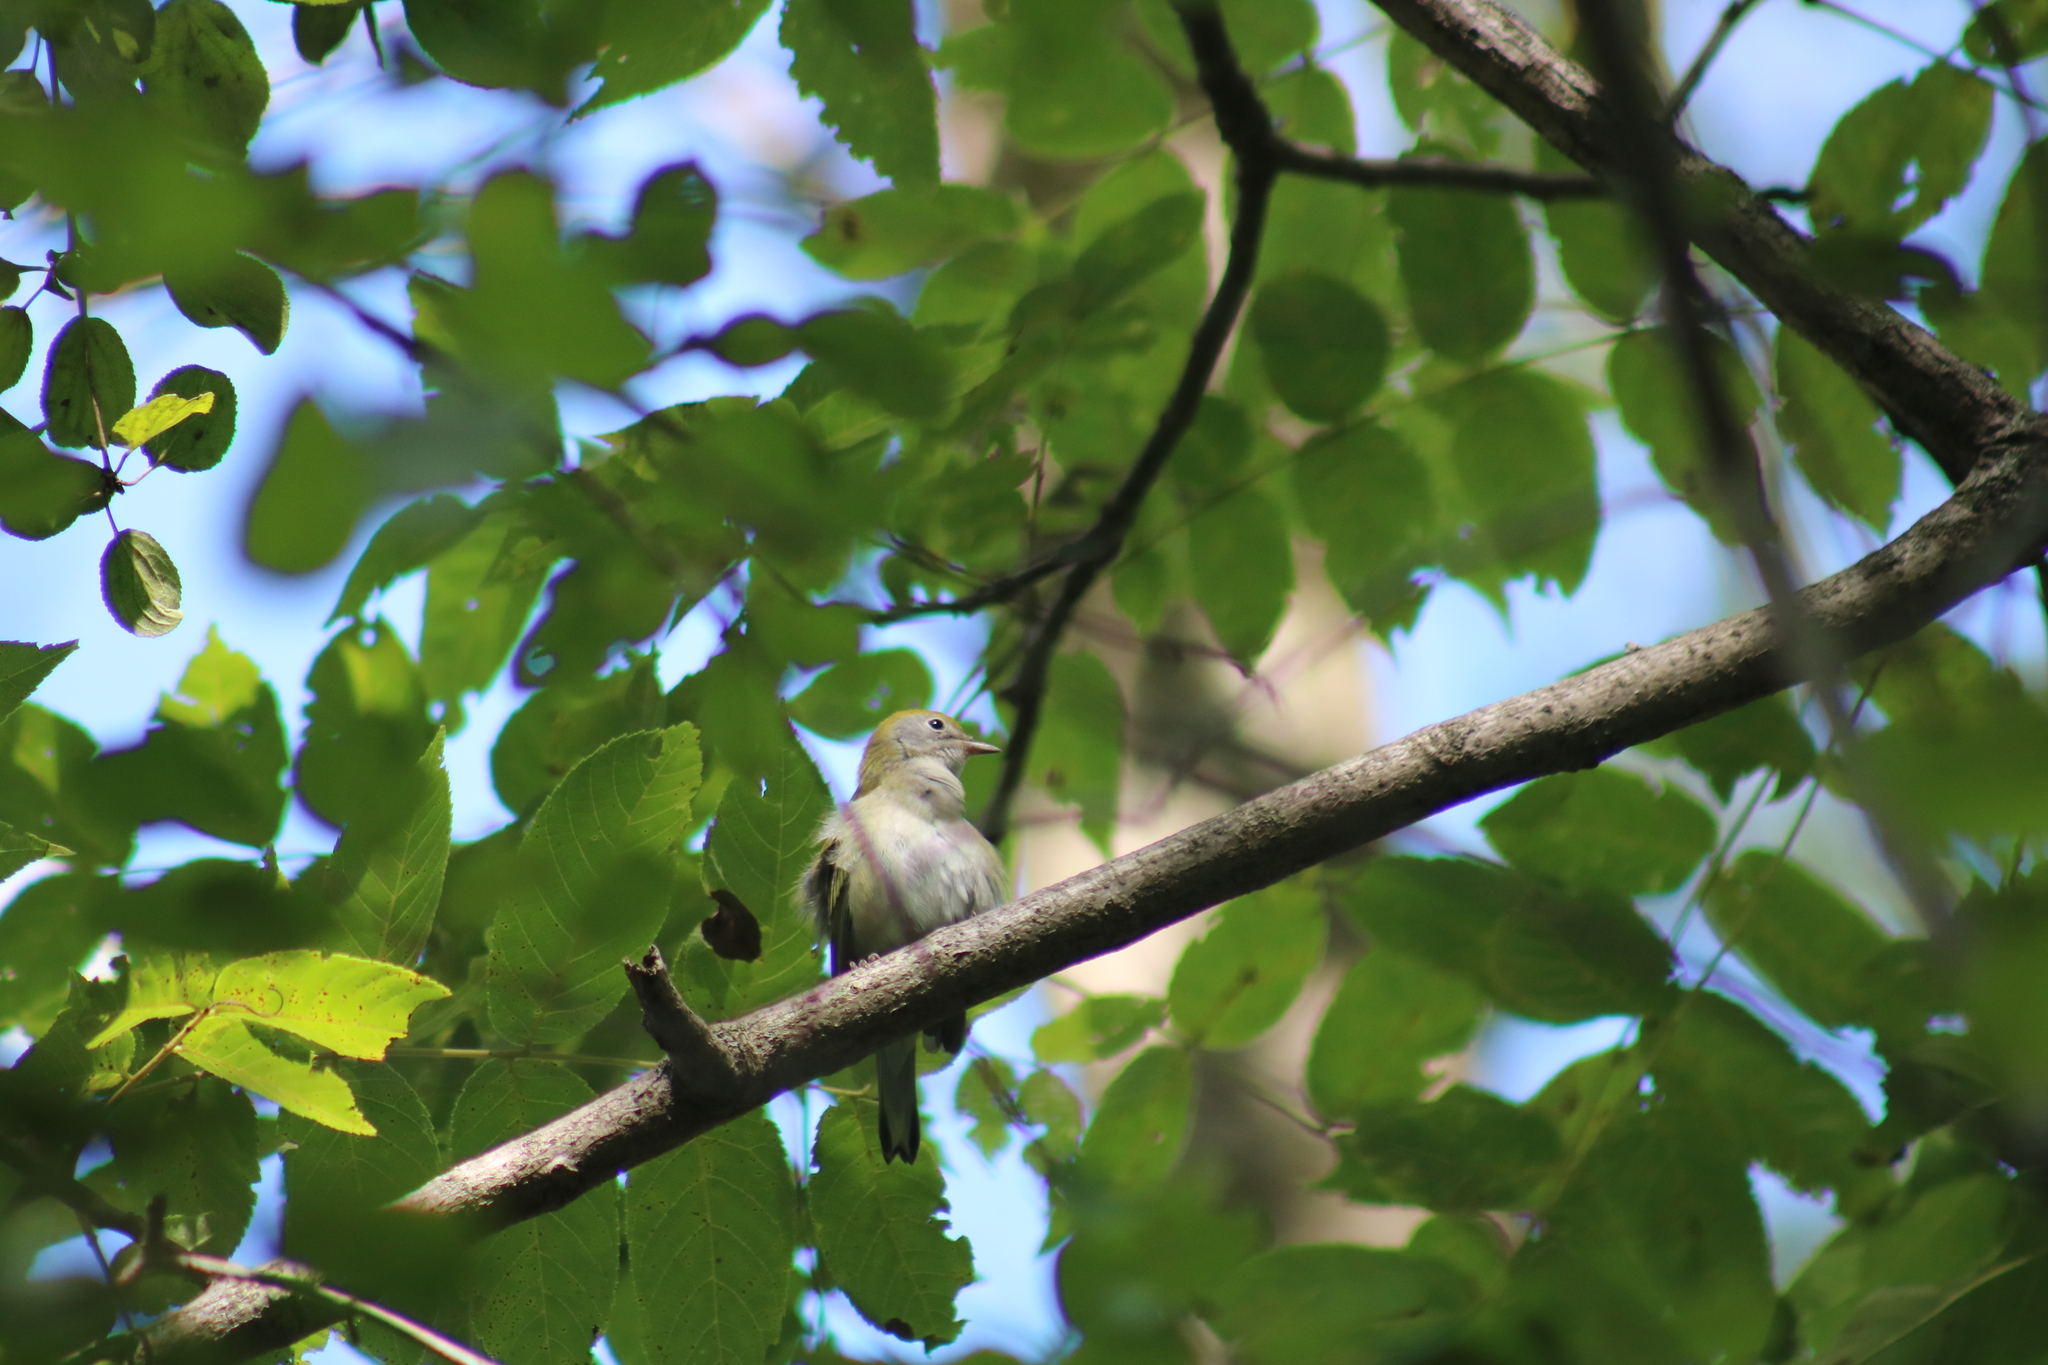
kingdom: Animalia
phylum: Chordata
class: Aves
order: Passeriformes
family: Parulidae
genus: Setophaga
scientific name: Setophaga pensylvanica
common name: Chestnut-sided warbler
